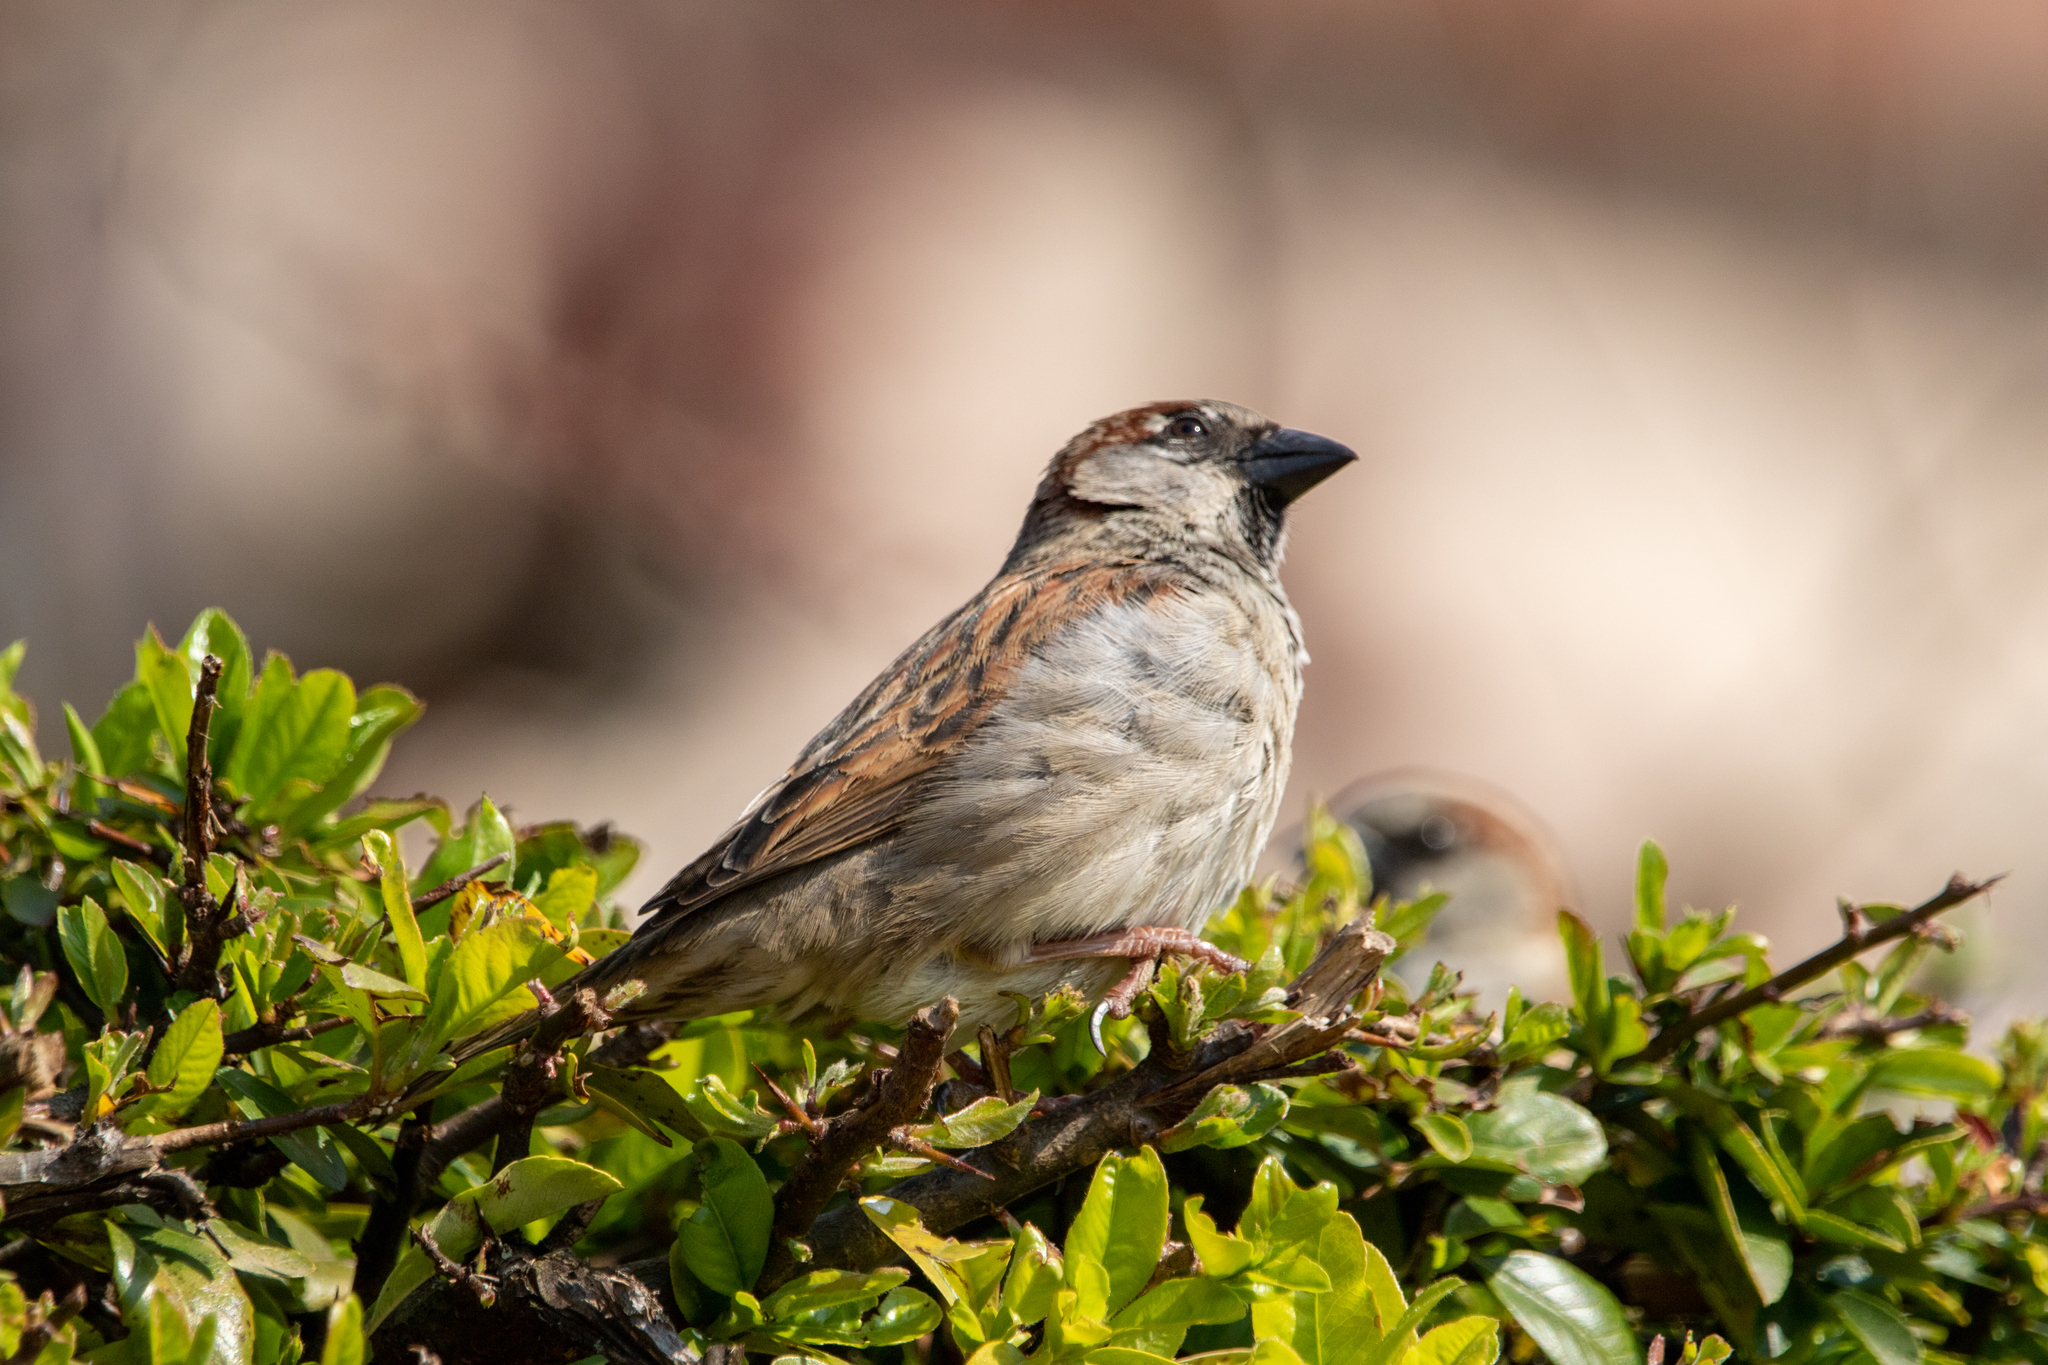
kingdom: Animalia
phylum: Chordata
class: Aves
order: Passeriformes
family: Passeridae
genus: Passer
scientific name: Passer domesticus
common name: House sparrow
